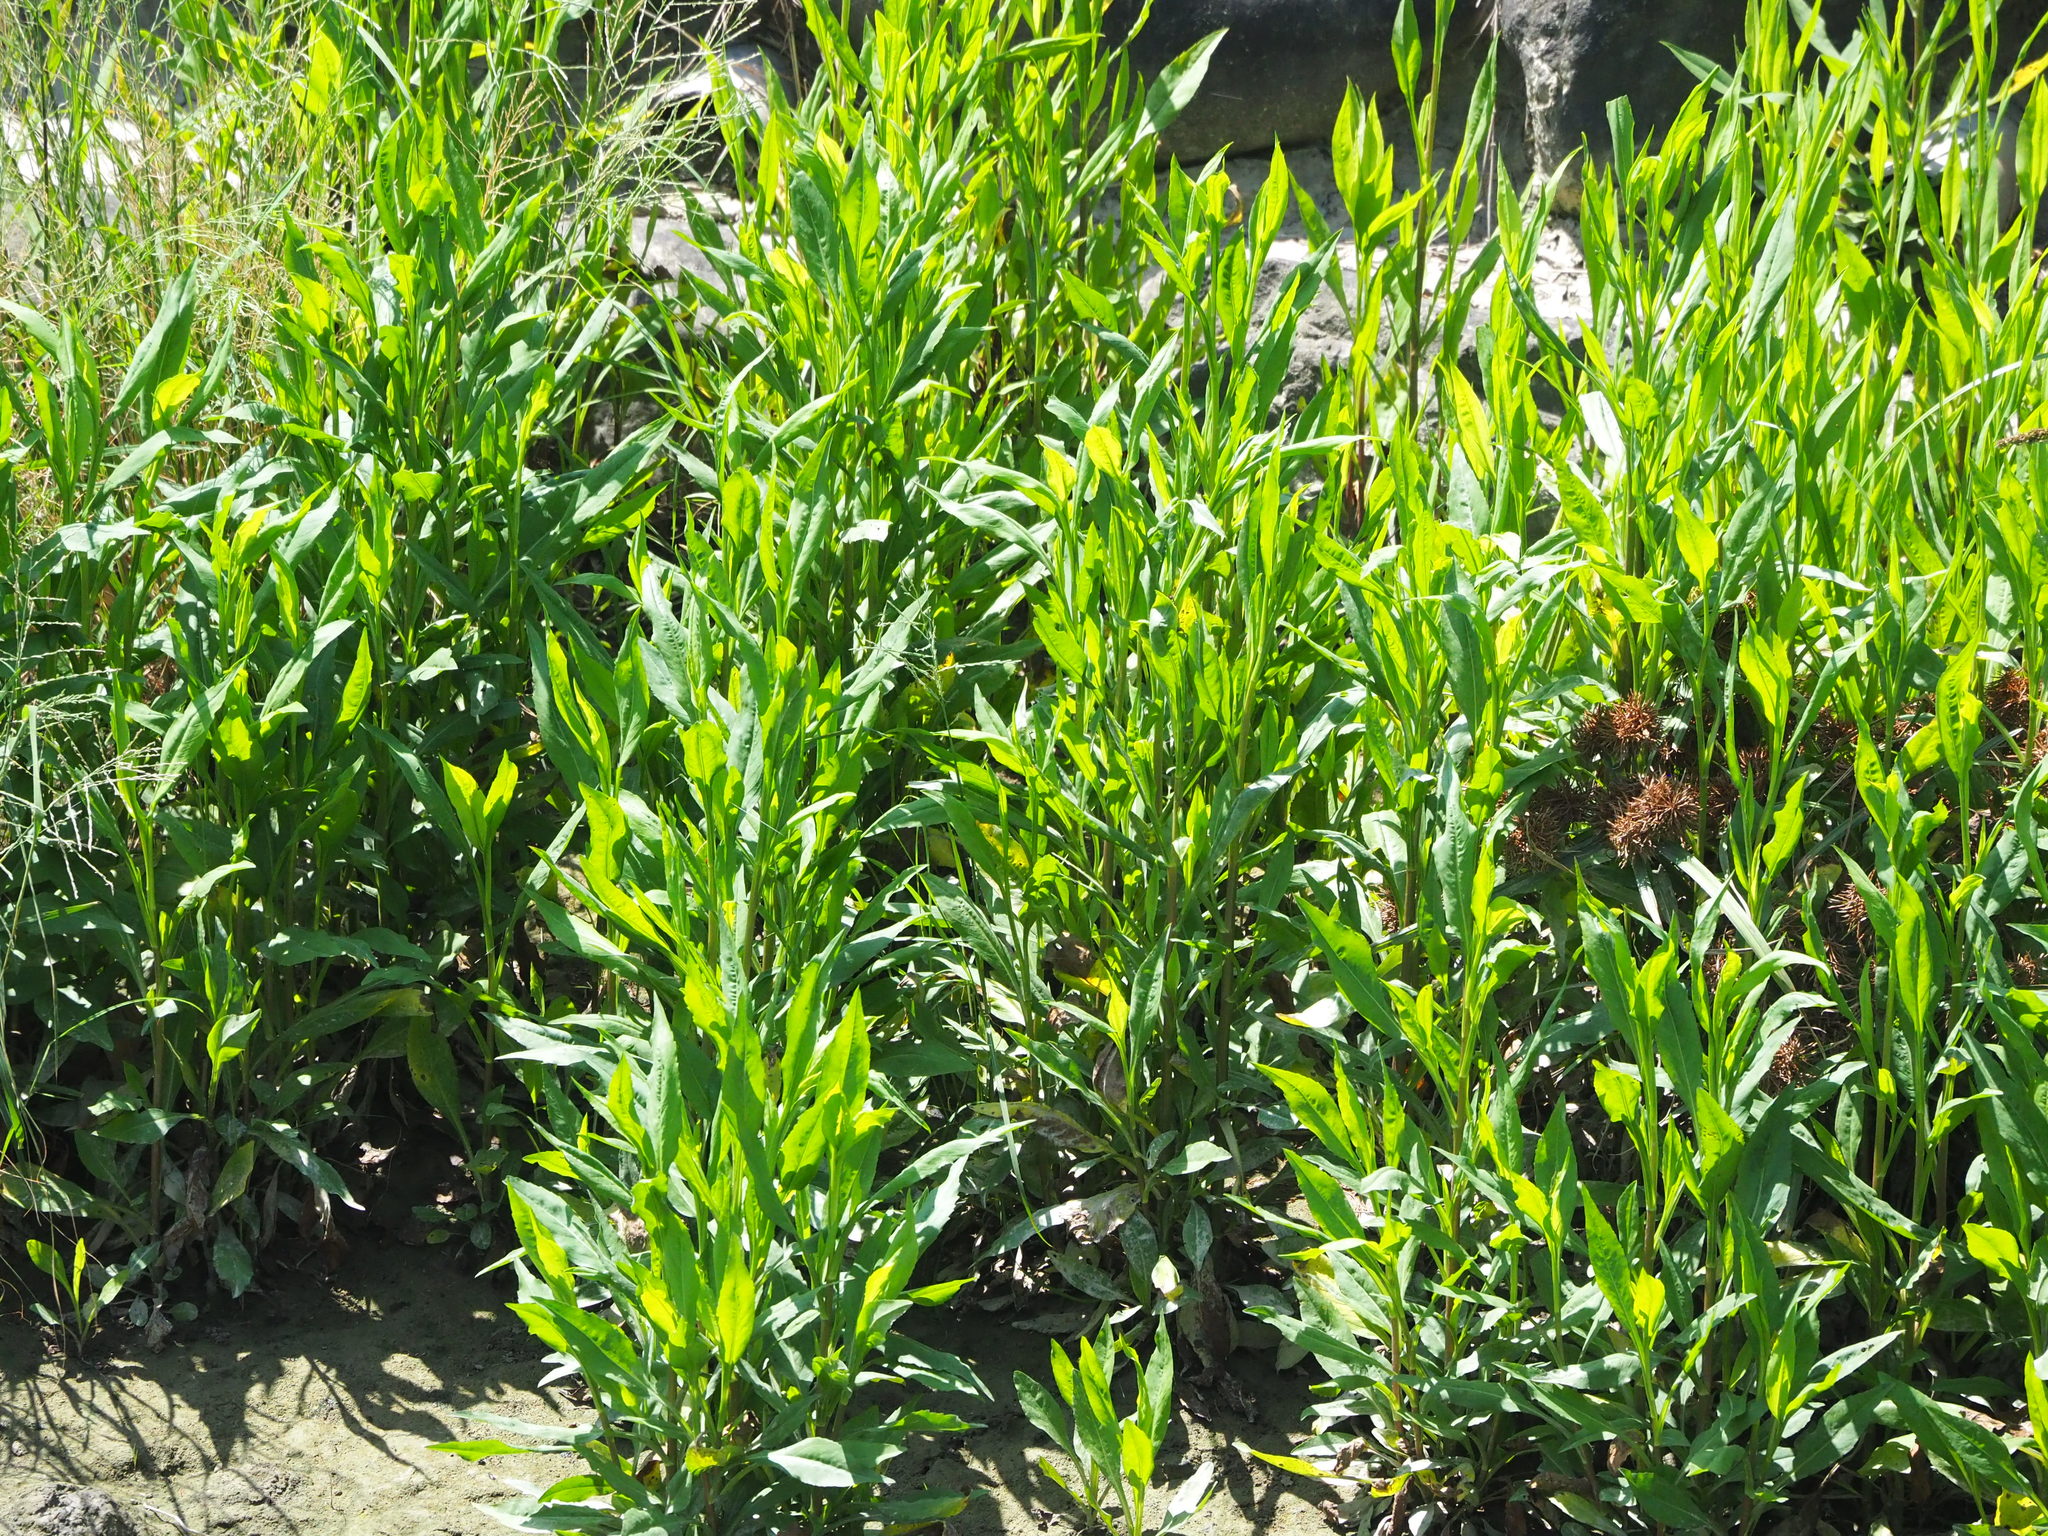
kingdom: Plantae
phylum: Tracheophyta
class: Magnoliopsida
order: Asterales
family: Asteraceae
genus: Symphyotrichum
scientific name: Symphyotrichum subulatum
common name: Annual saltmarsh aster
